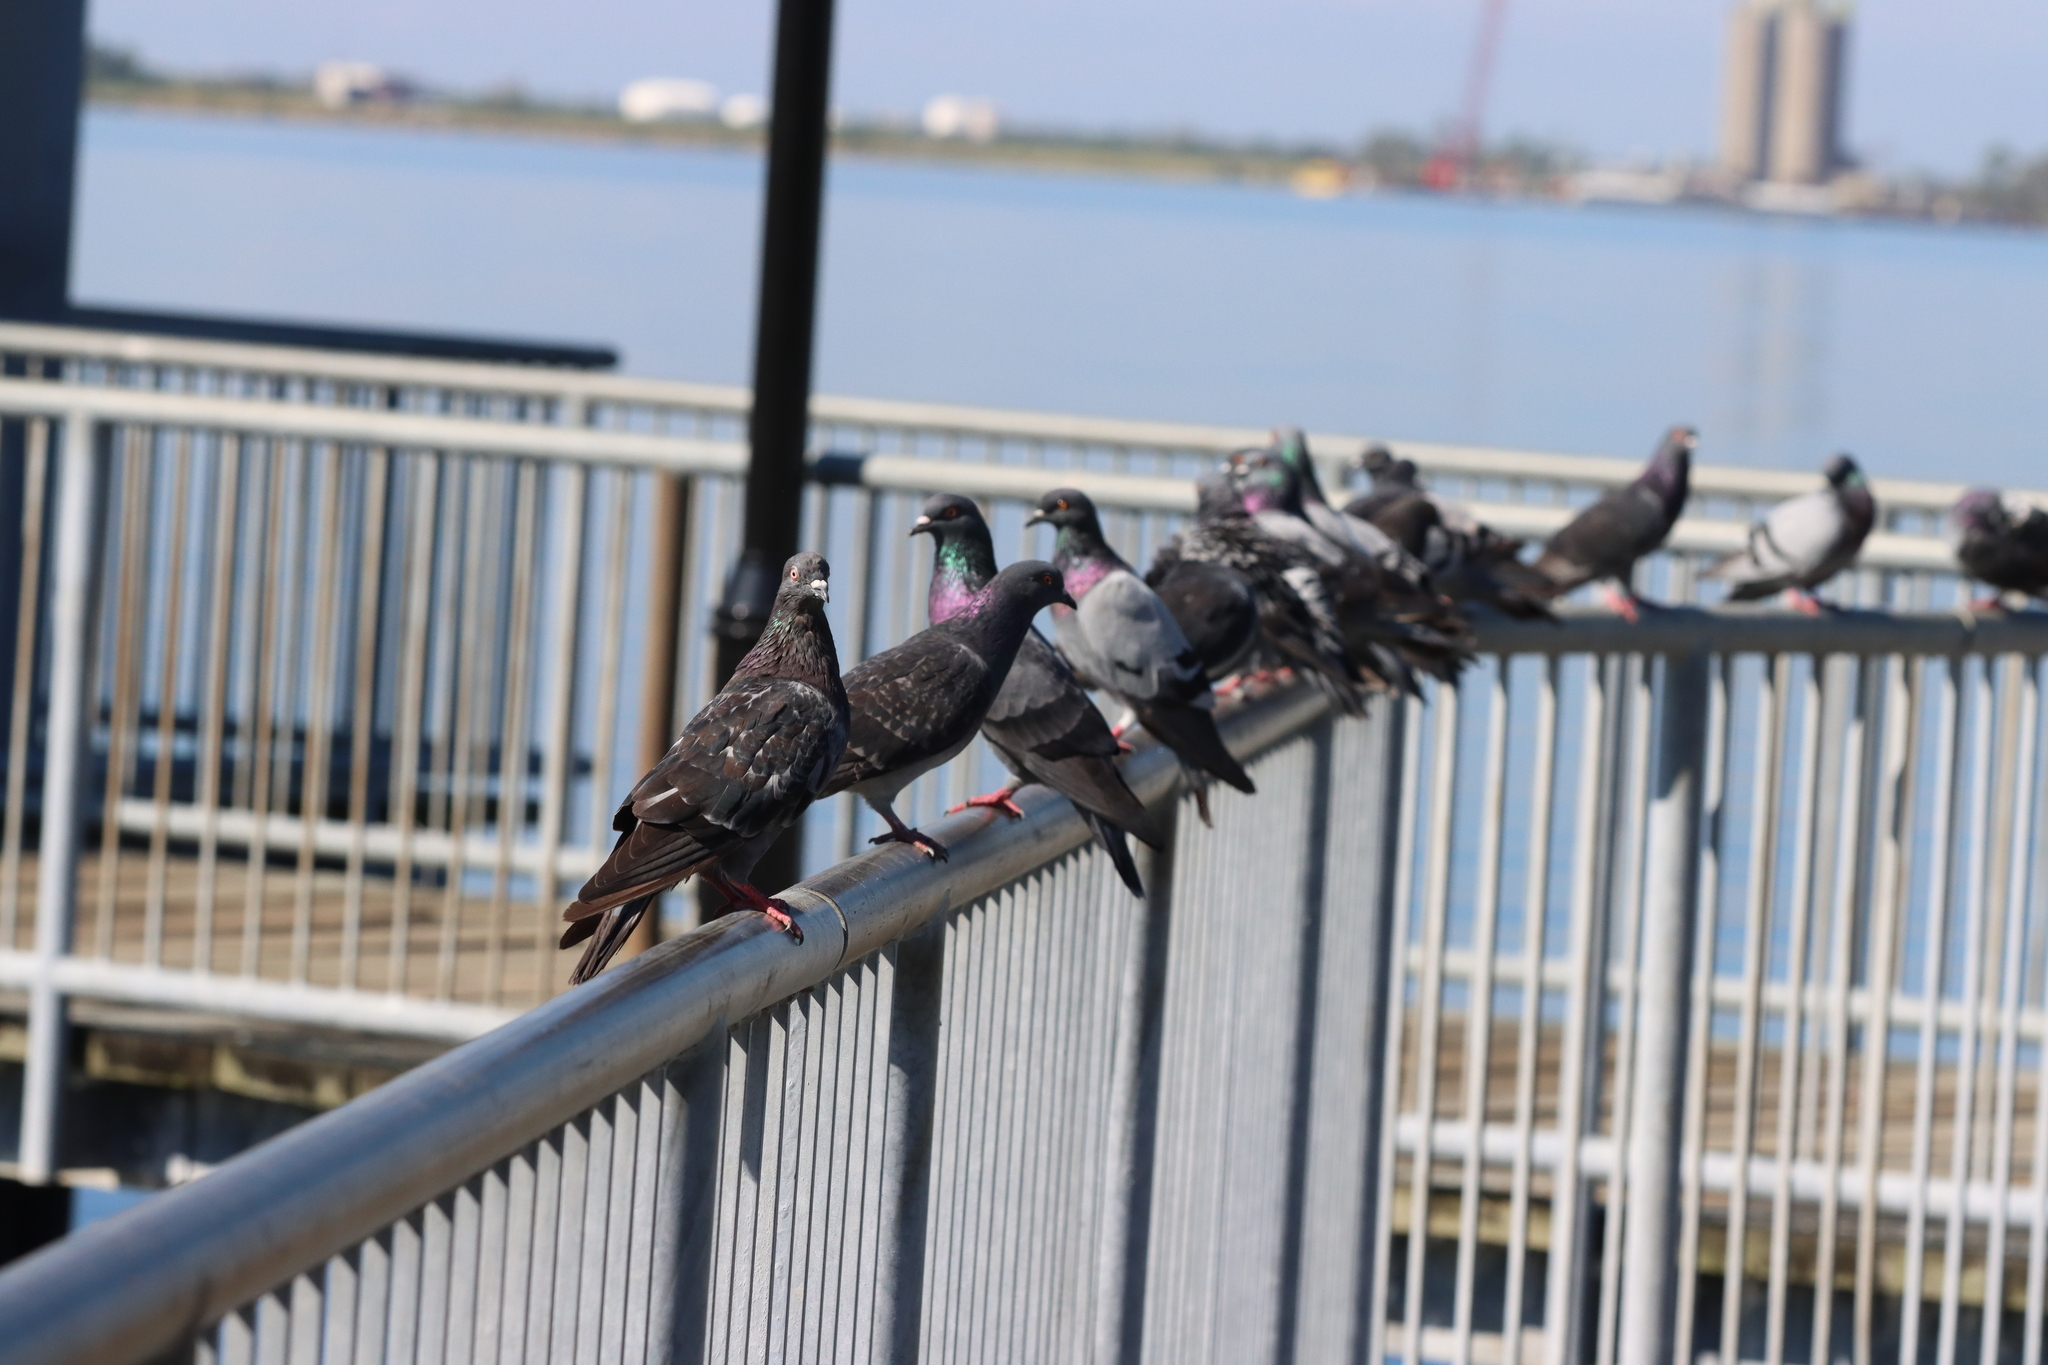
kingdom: Animalia
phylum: Chordata
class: Aves
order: Columbiformes
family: Columbidae
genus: Columba
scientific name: Columba livia
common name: Rock pigeon
